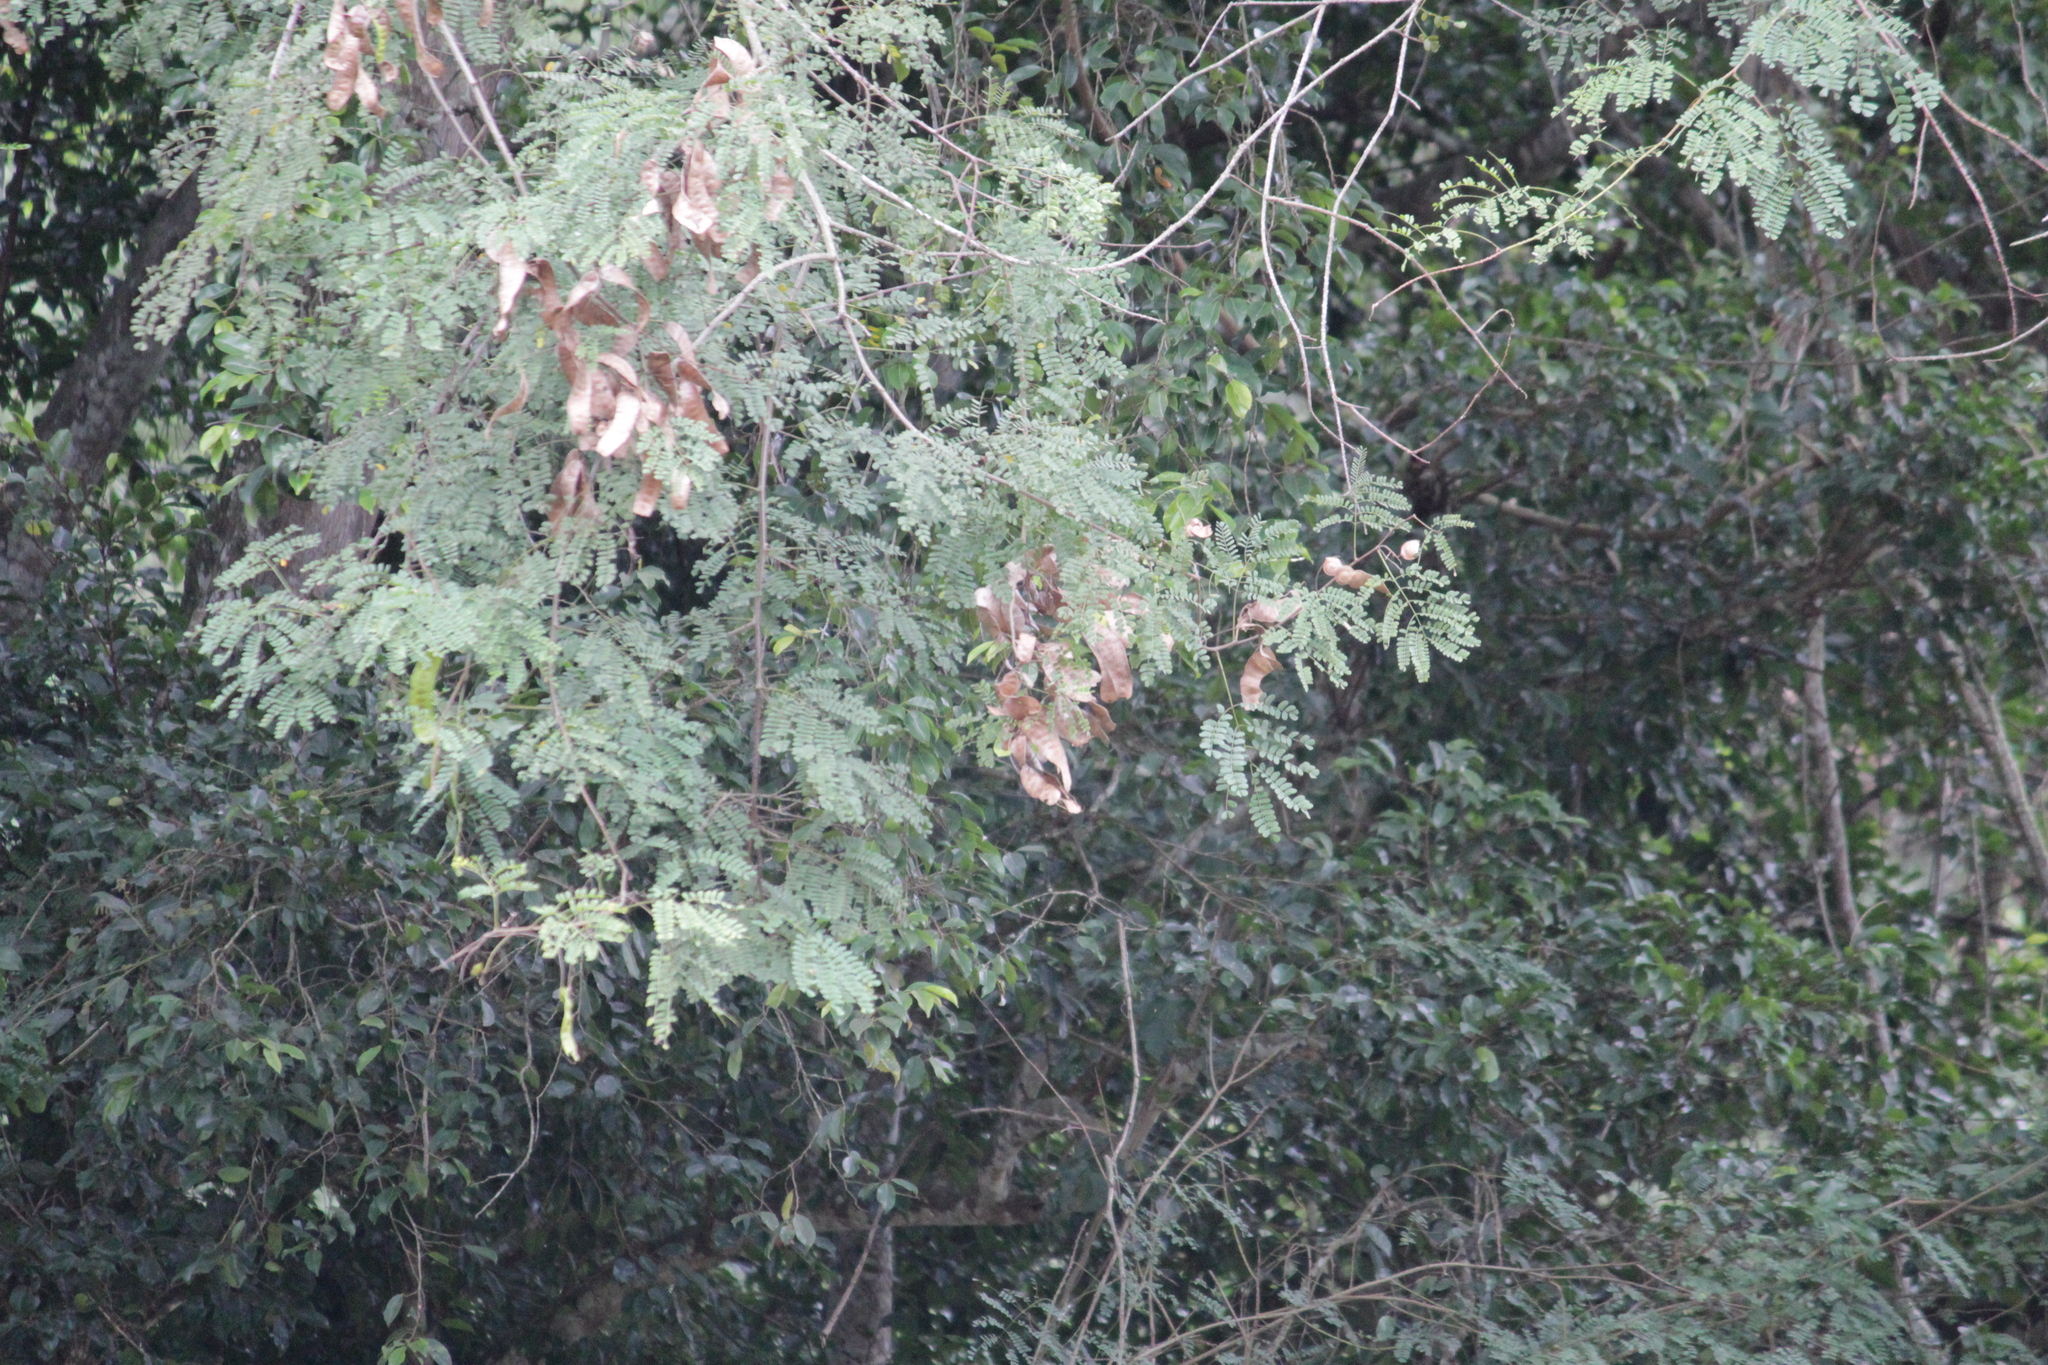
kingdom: Plantae
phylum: Tracheophyta
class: Magnoliopsida
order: Fabales
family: Fabaceae
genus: Adenopodia
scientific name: Adenopodia spicata
